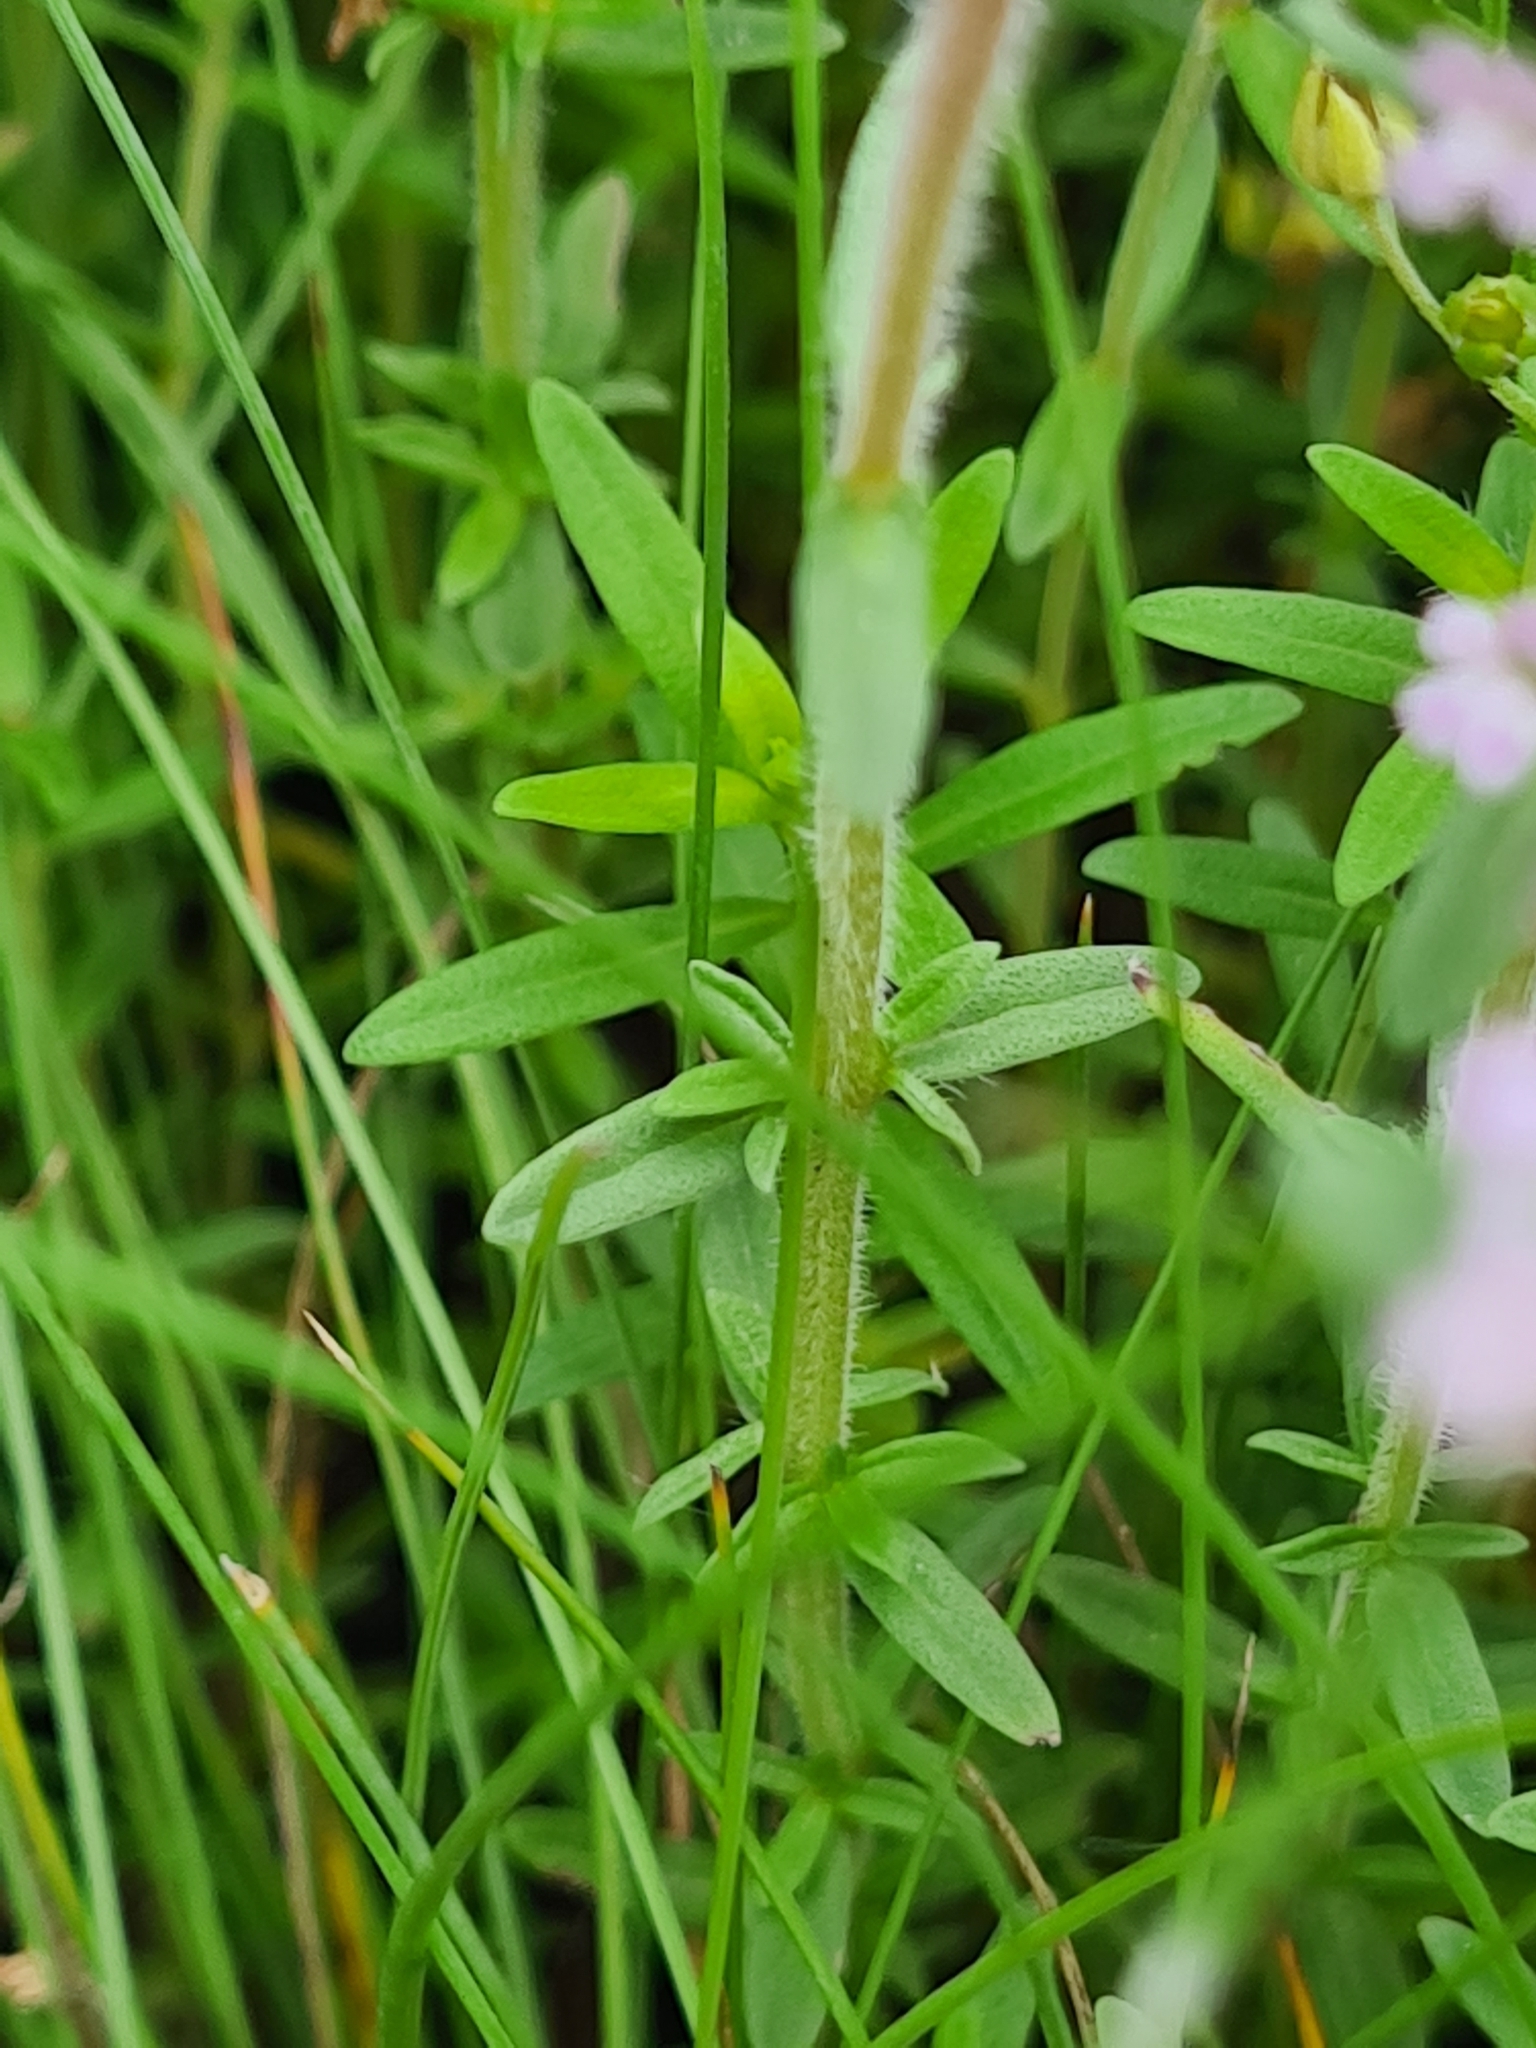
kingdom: Plantae
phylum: Tracheophyta
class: Magnoliopsida
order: Lamiales
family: Lamiaceae
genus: Thymus
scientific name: Thymus kosteleckyanus
